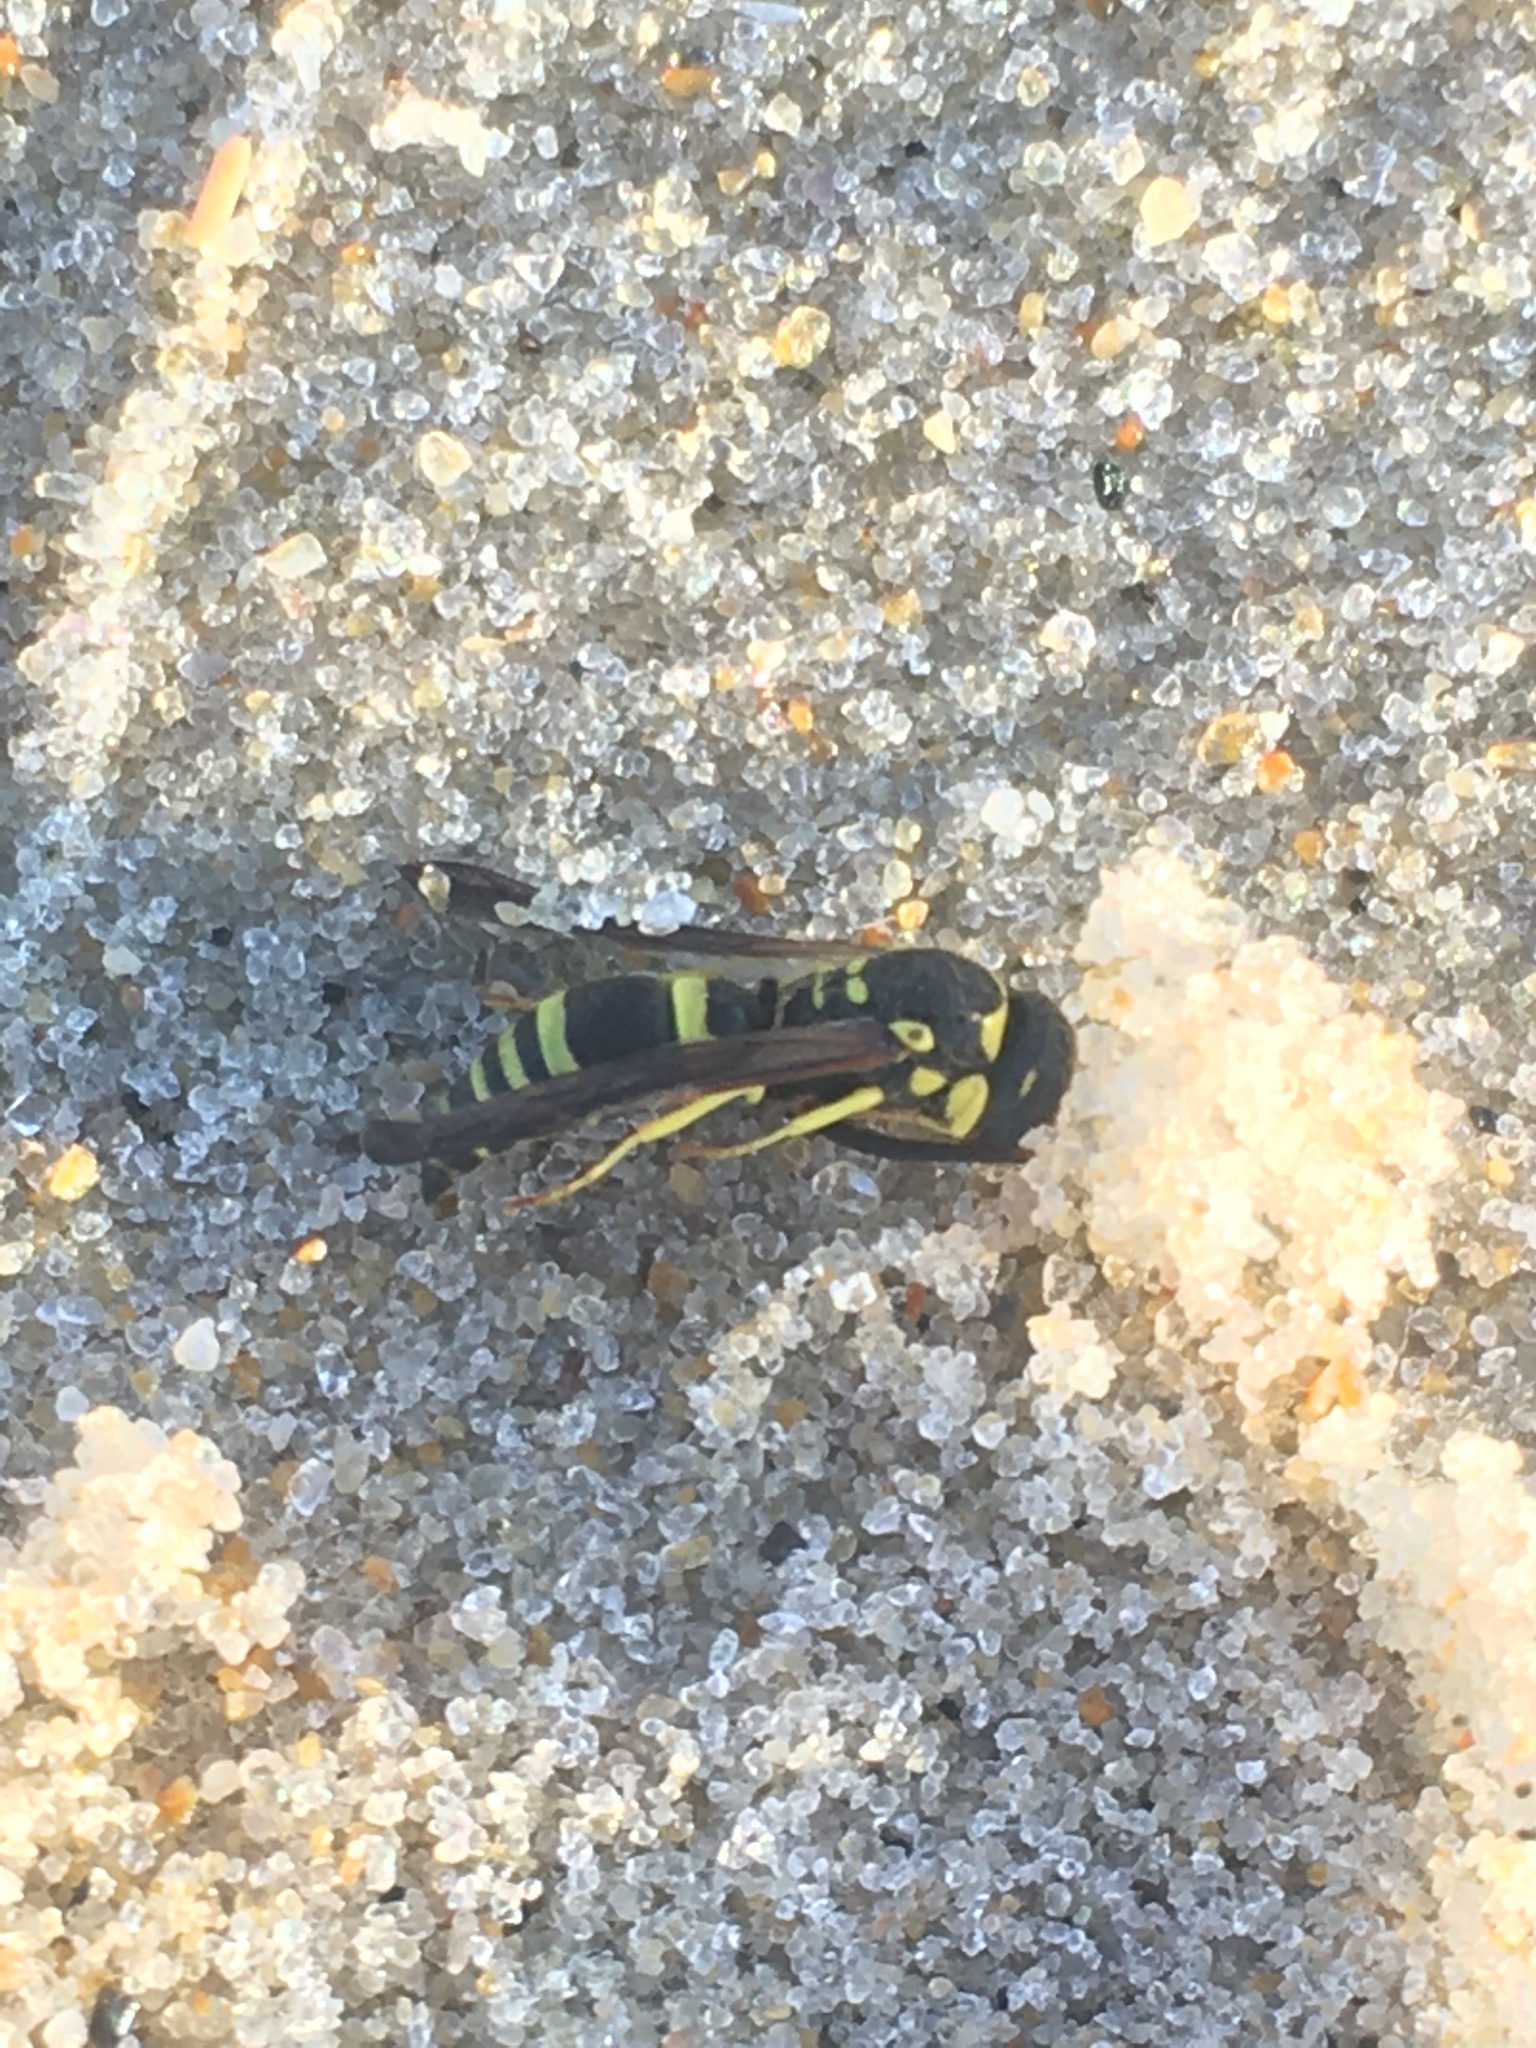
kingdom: Animalia
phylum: Arthropoda
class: Insecta
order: Hymenoptera
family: Vespidae
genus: Ancistrocerus
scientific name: Ancistrocerus
